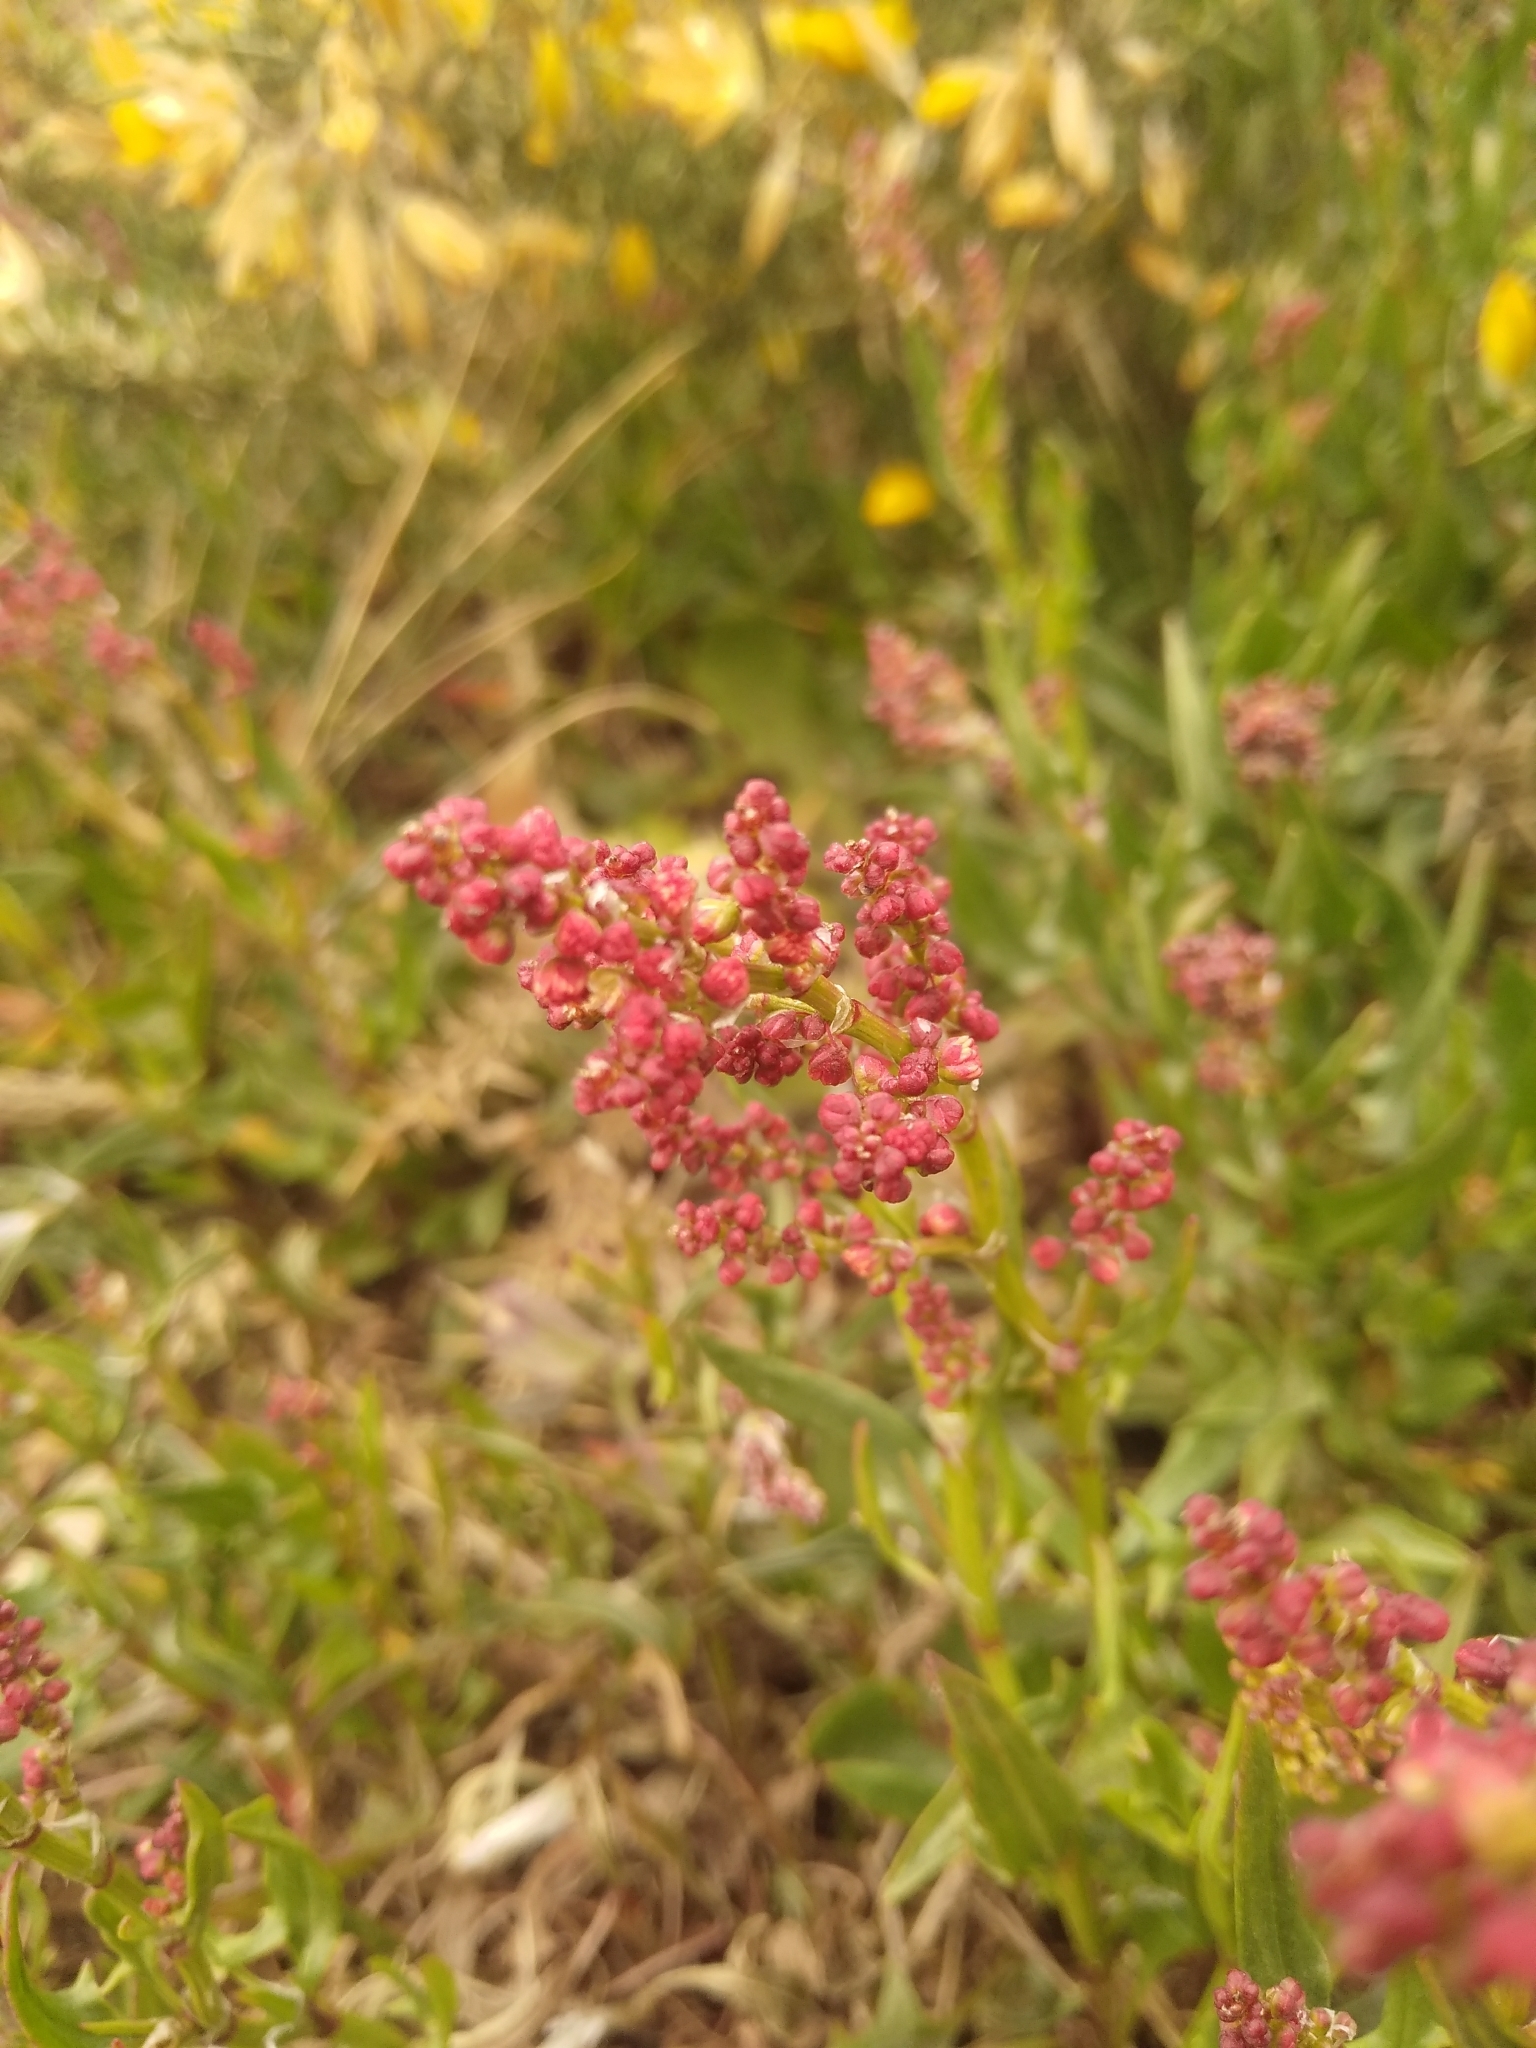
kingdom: Plantae
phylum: Tracheophyta
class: Magnoliopsida
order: Caryophyllales
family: Polygonaceae
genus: Rumex
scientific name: Rumex acetosella
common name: Common sheep sorrel
